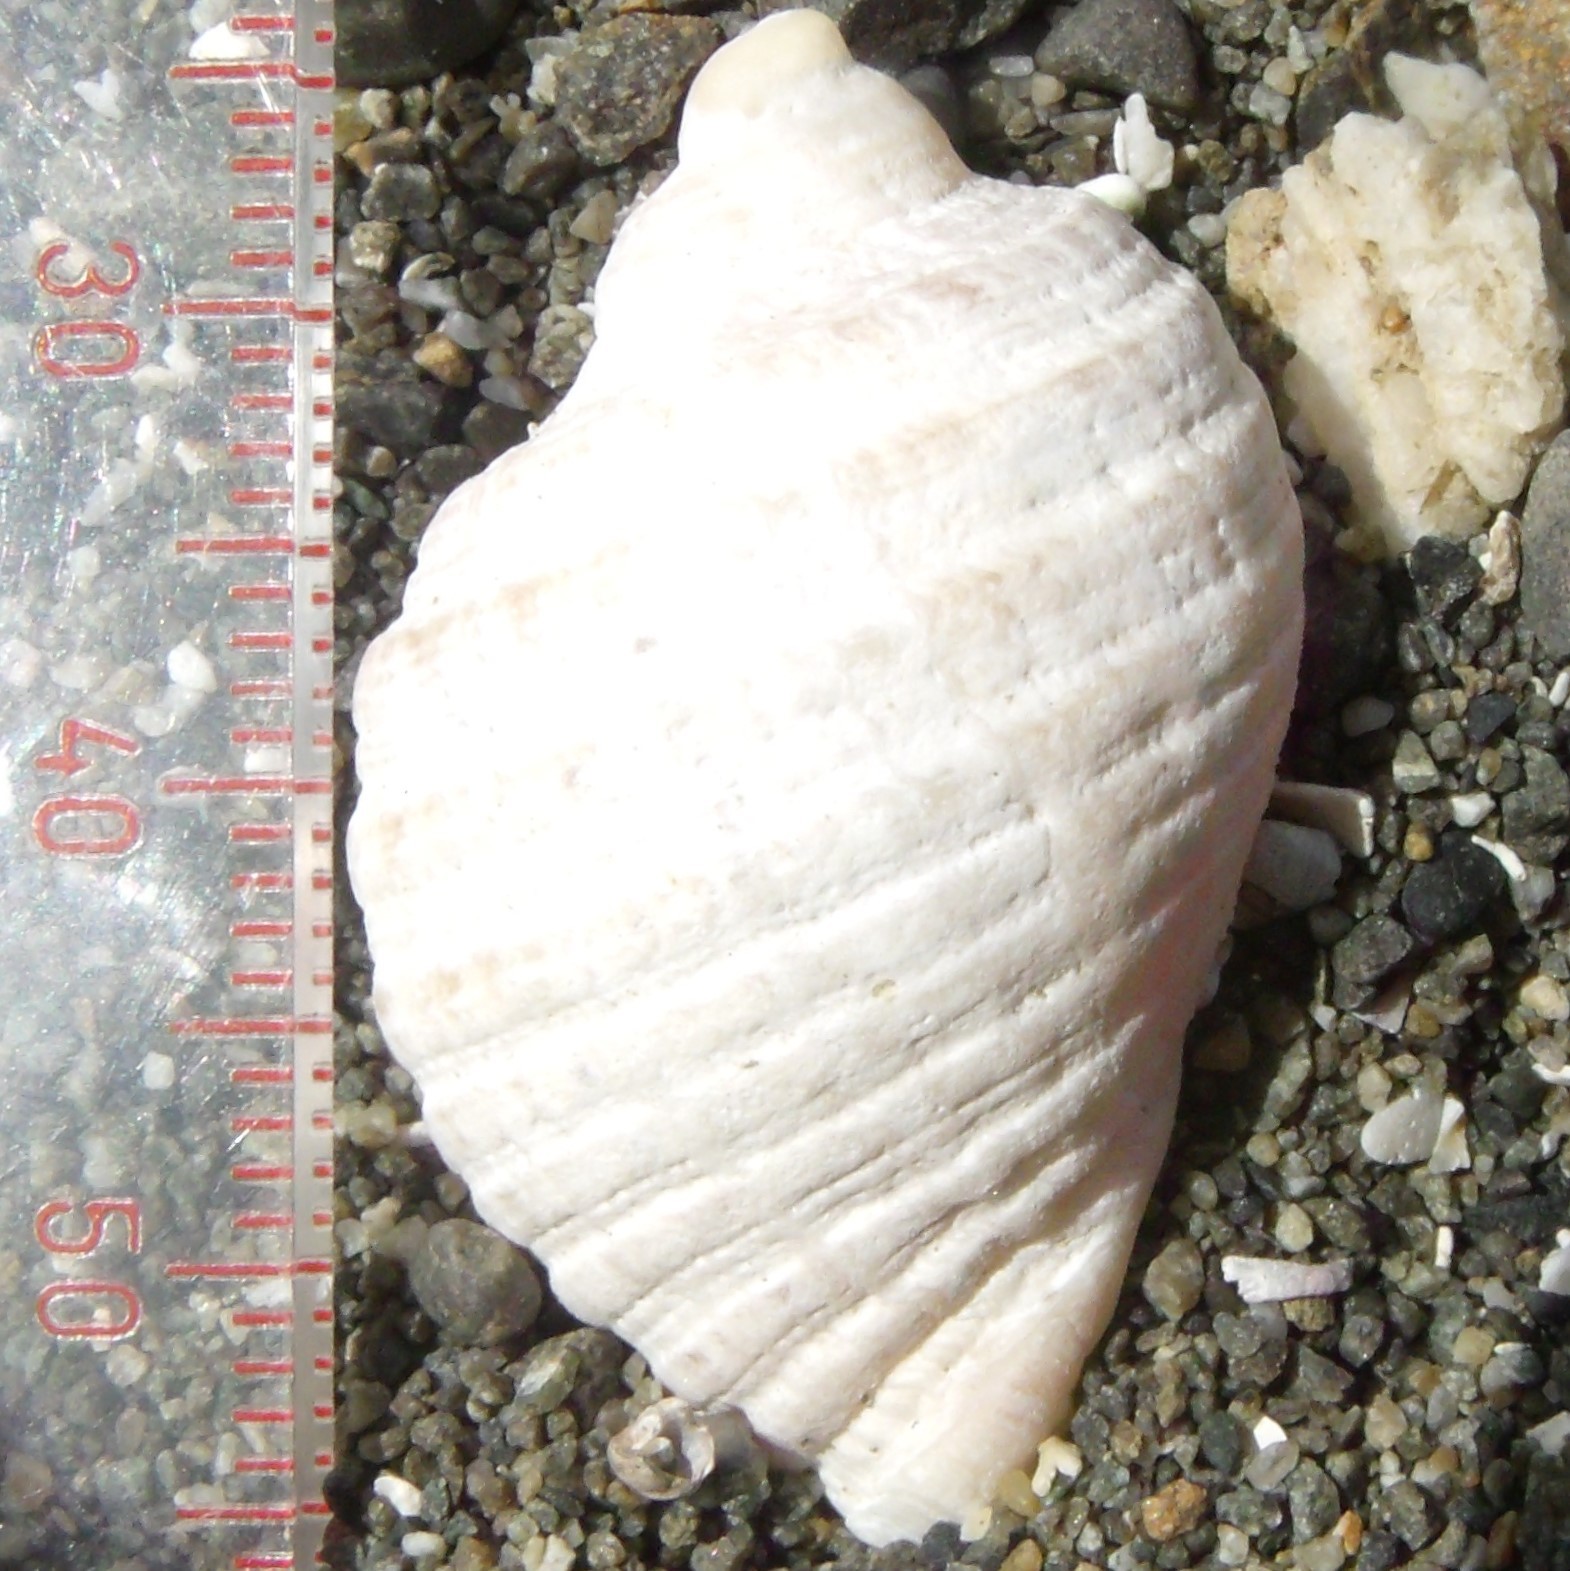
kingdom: Animalia
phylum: Mollusca
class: Gastropoda
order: Neogastropoda
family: Muricidae
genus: Dicathais
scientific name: Dicathais orbita
